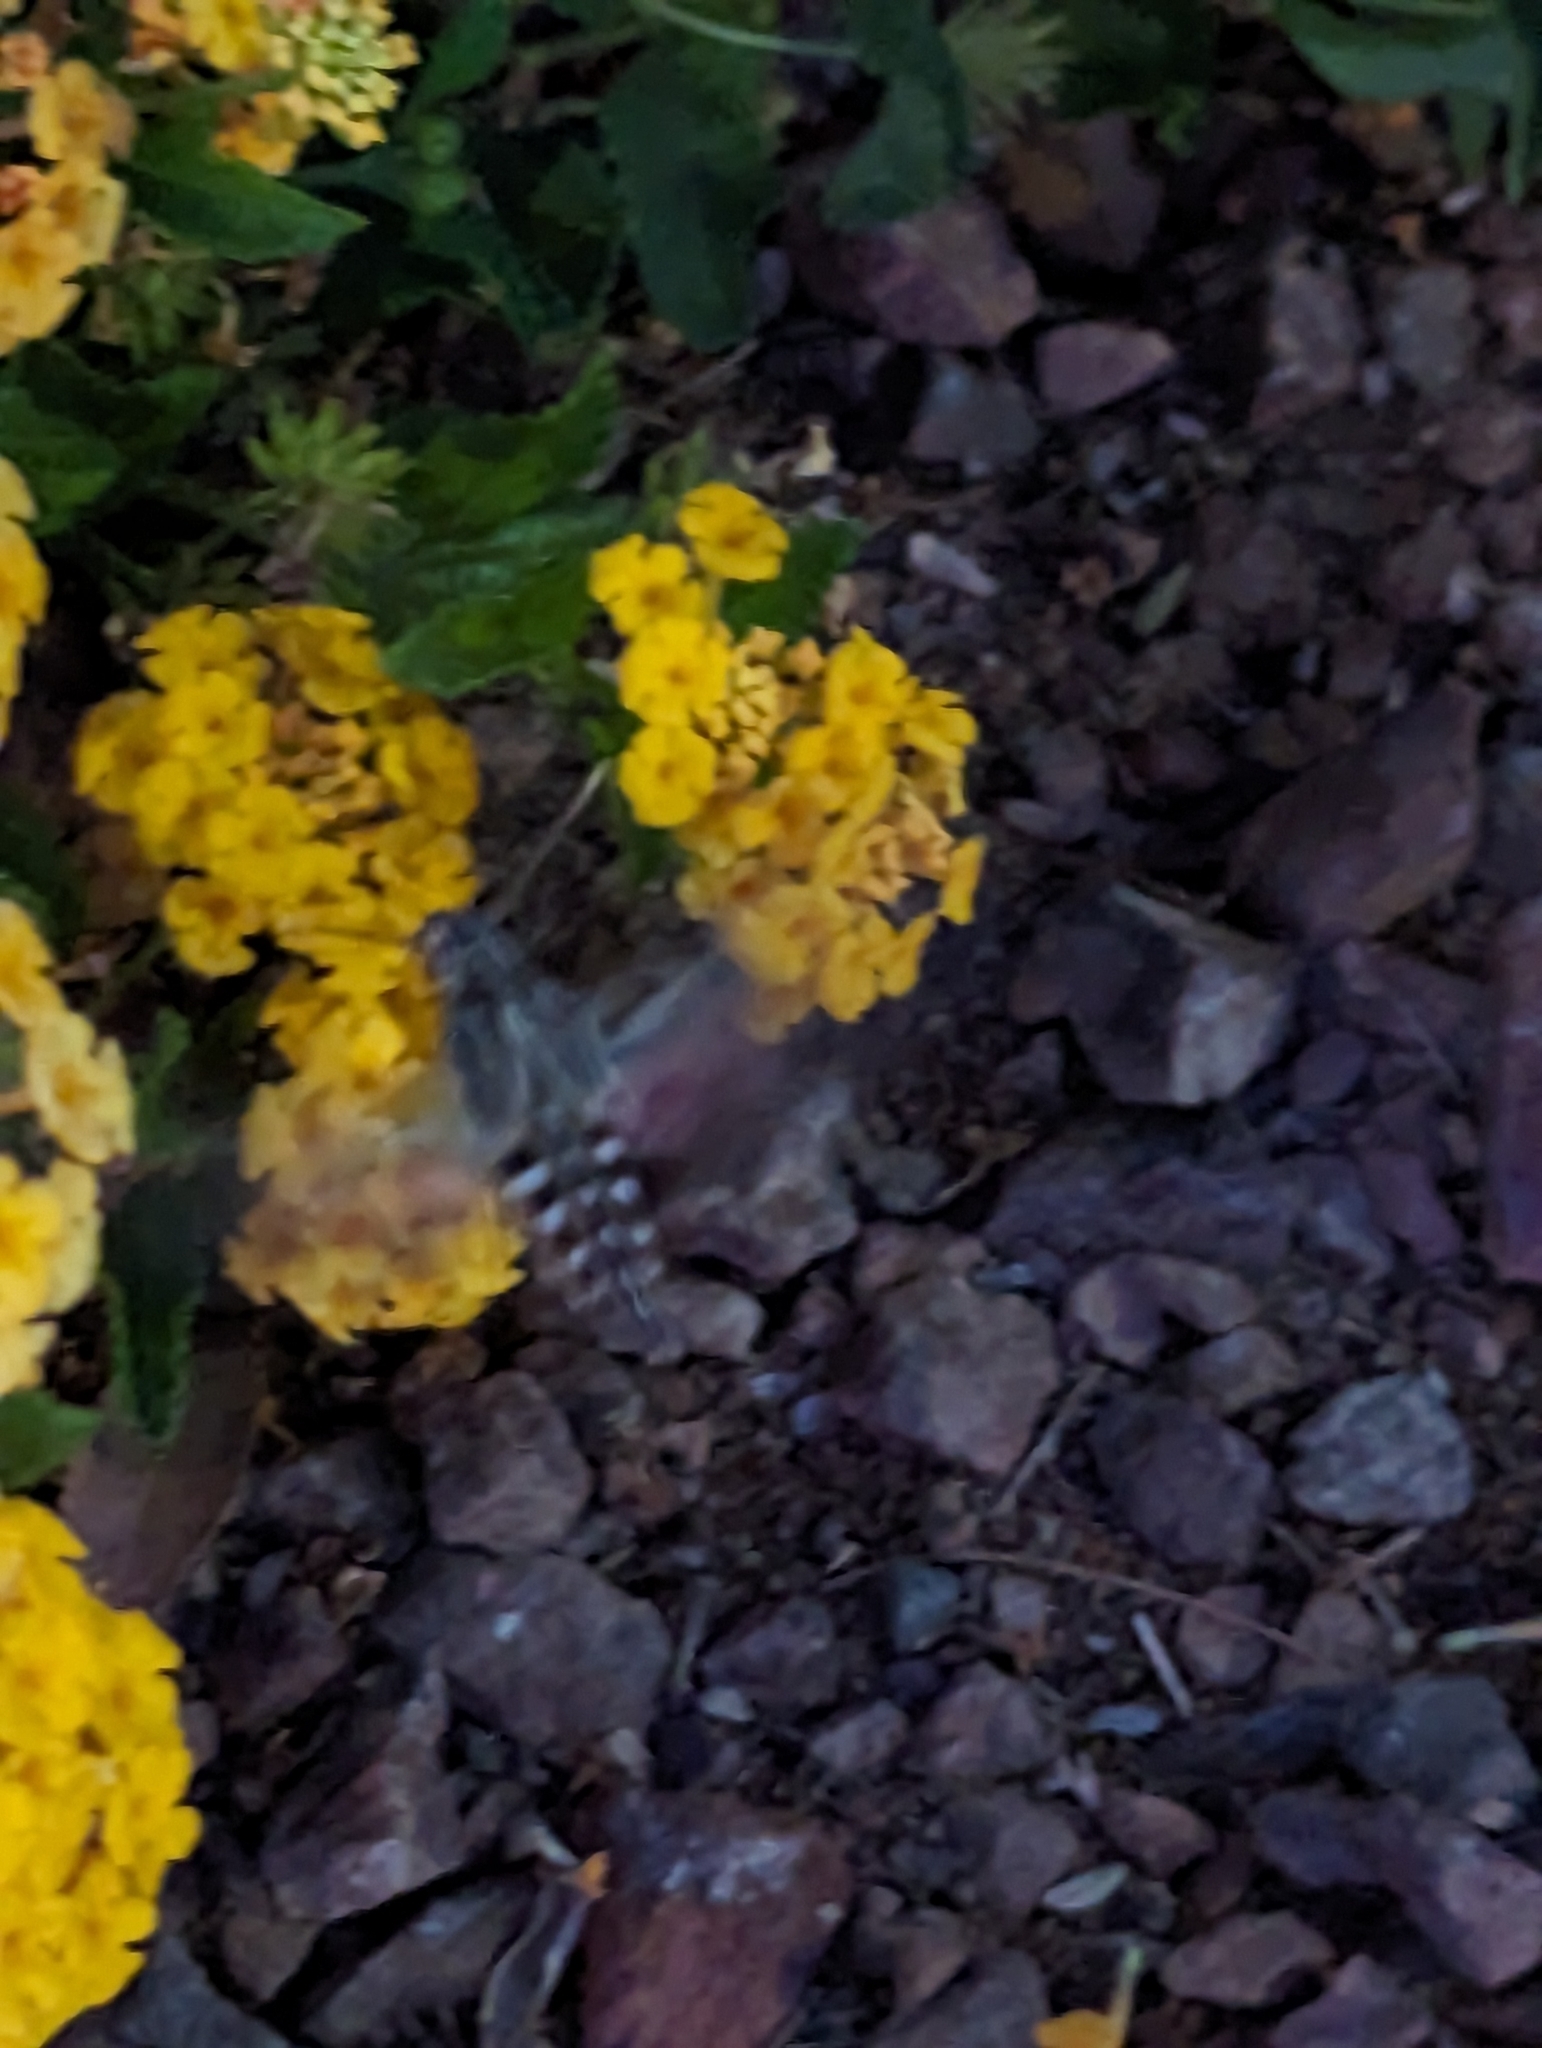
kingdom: Animalia
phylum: Arthropoda
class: Insecta
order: Lepidoptera
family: Sphingidae
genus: Hyles
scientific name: Hyles lineata
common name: White-lined sphinx
